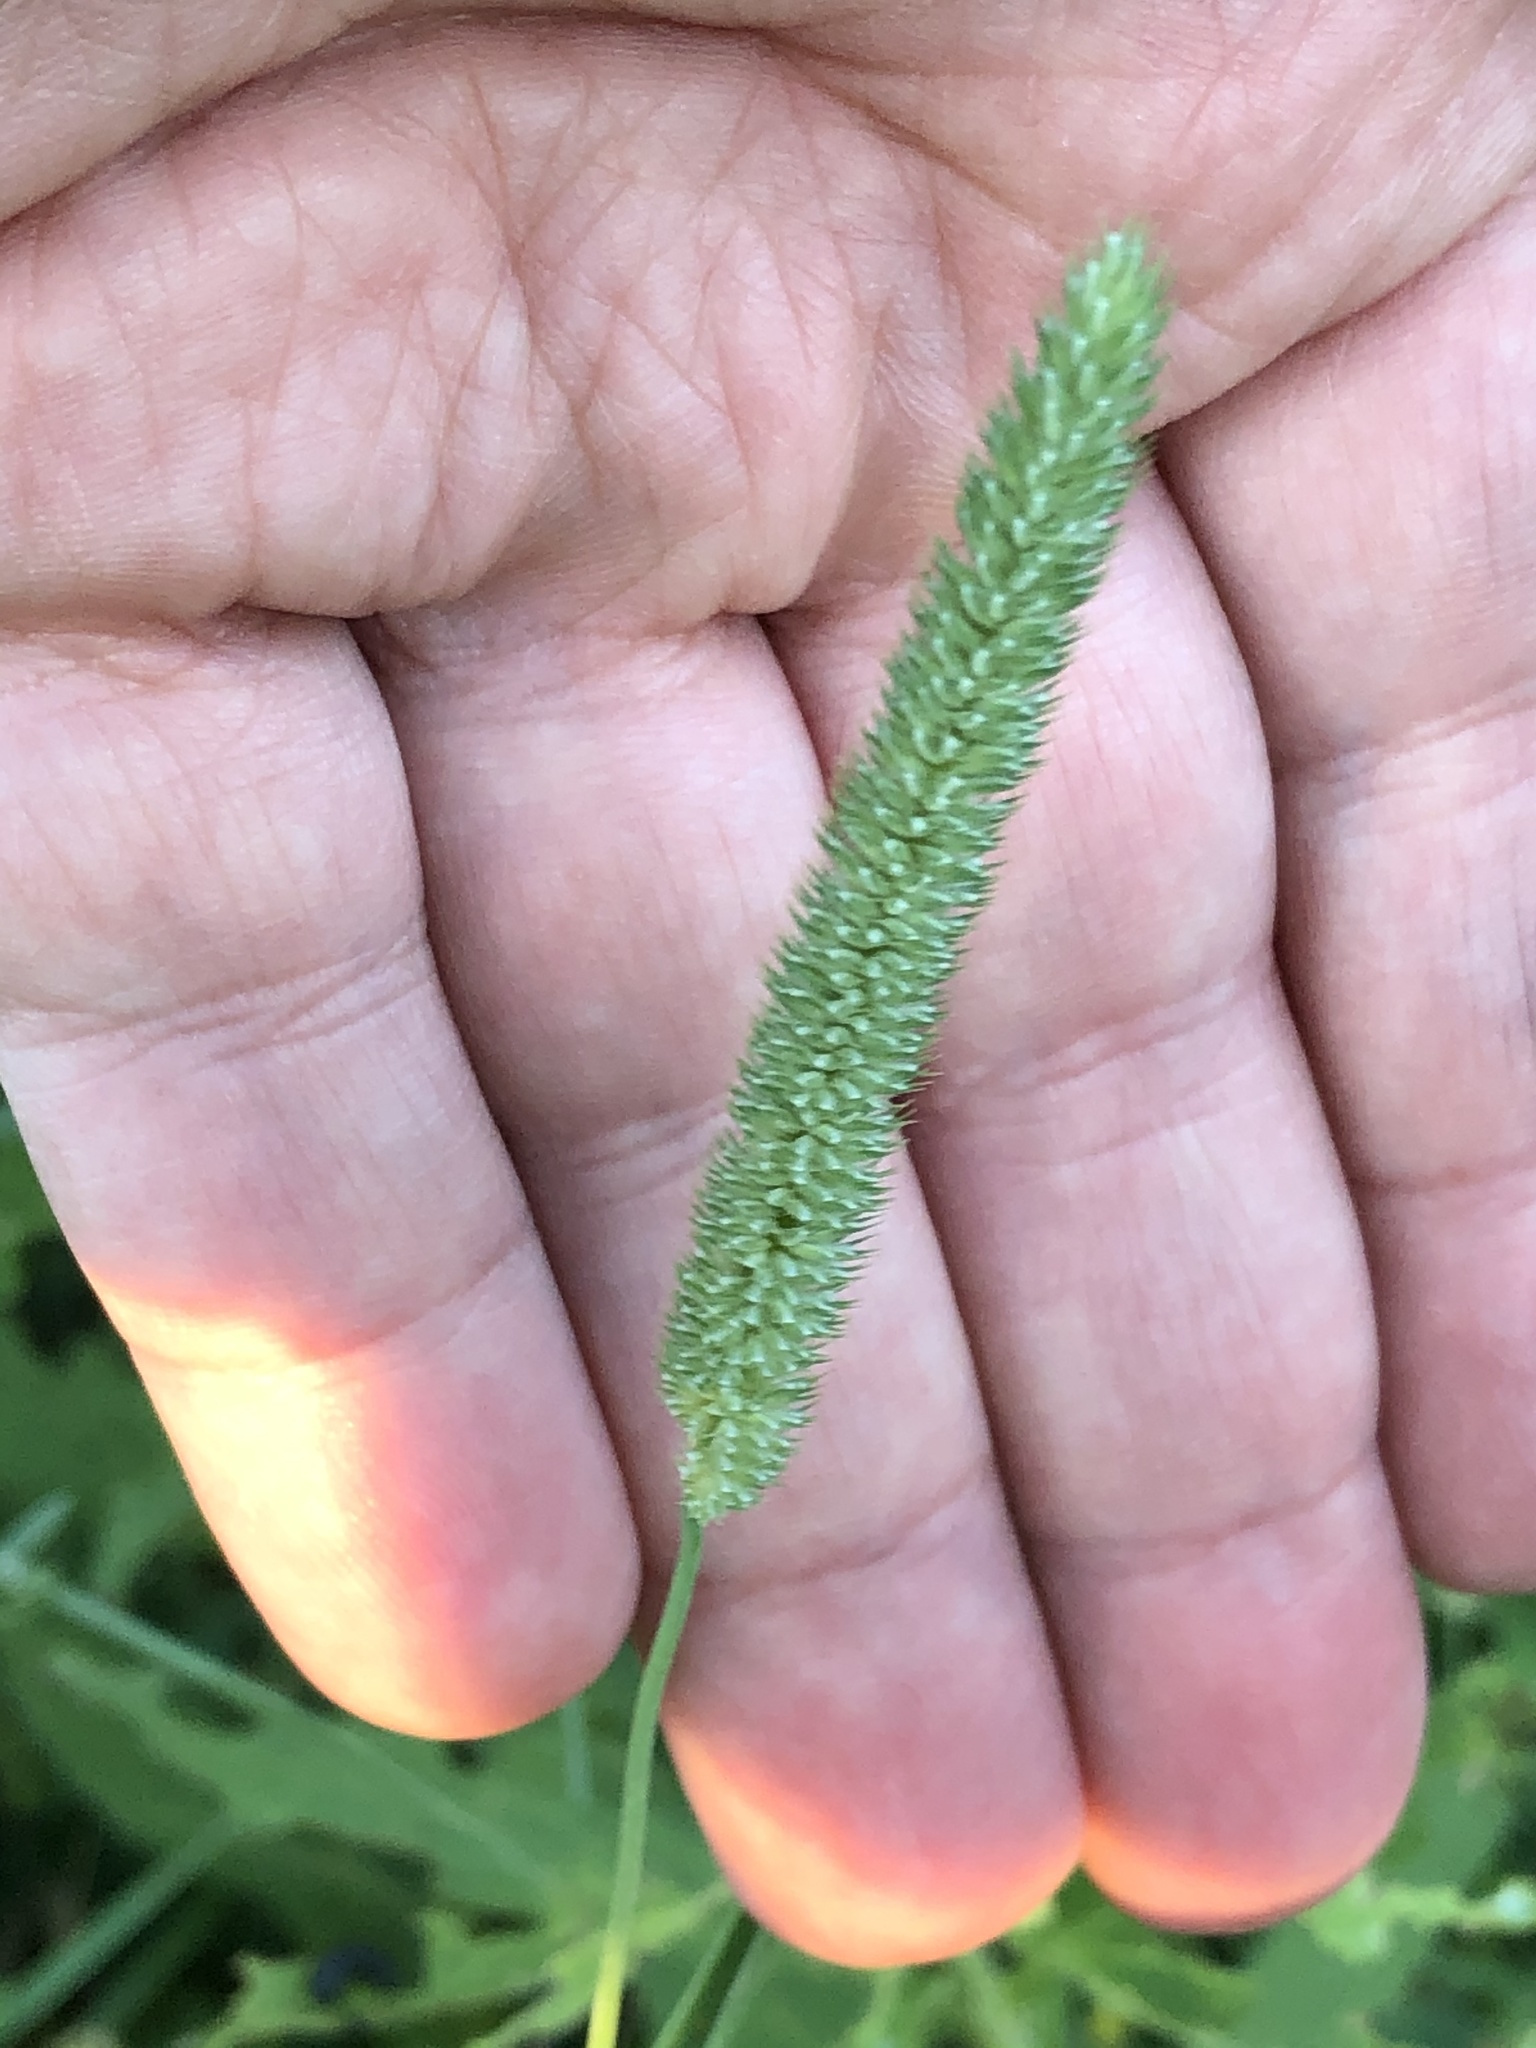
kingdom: Plantae
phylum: Tracheophyta
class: Liliopsida
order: Poales
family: Poaceae
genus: Phleum
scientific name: Phleum pratense
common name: Timothy grass
